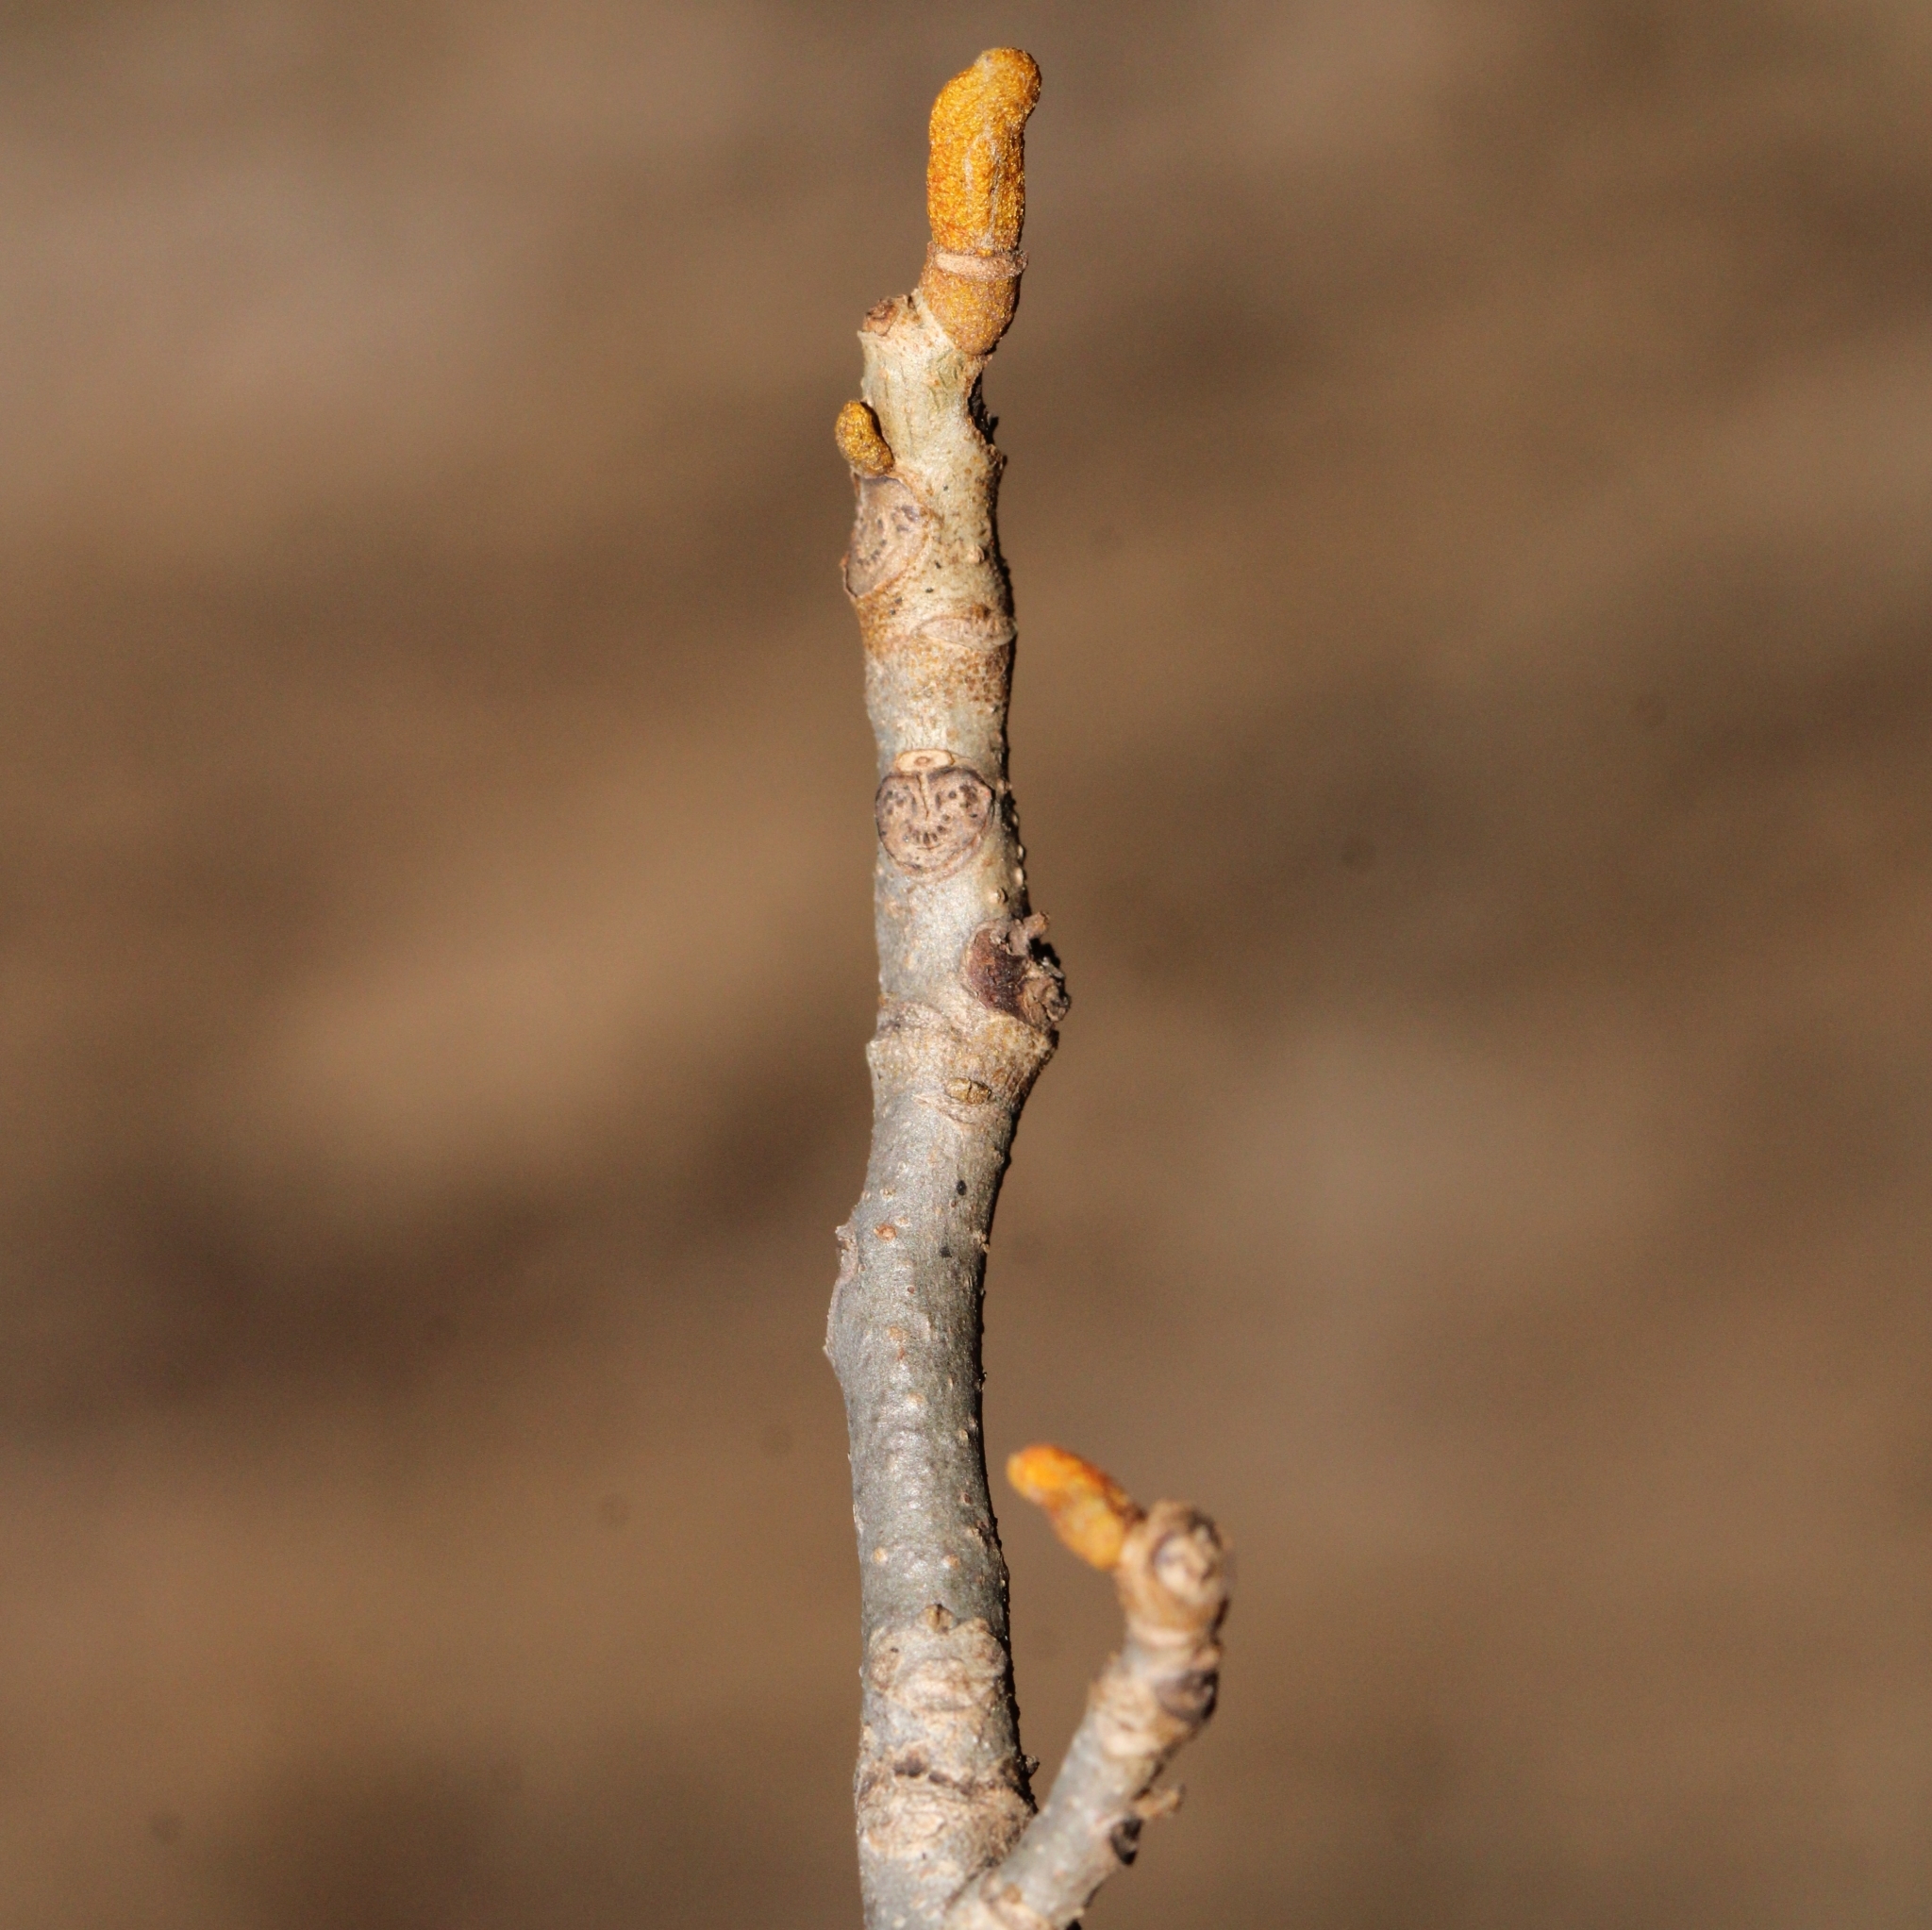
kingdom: Plantae
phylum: Tracheophyta
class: Magnoliopsida
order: Fagales
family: Juglandaceae
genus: Carya
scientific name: Carya cordiformis
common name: Bitternut hickory
